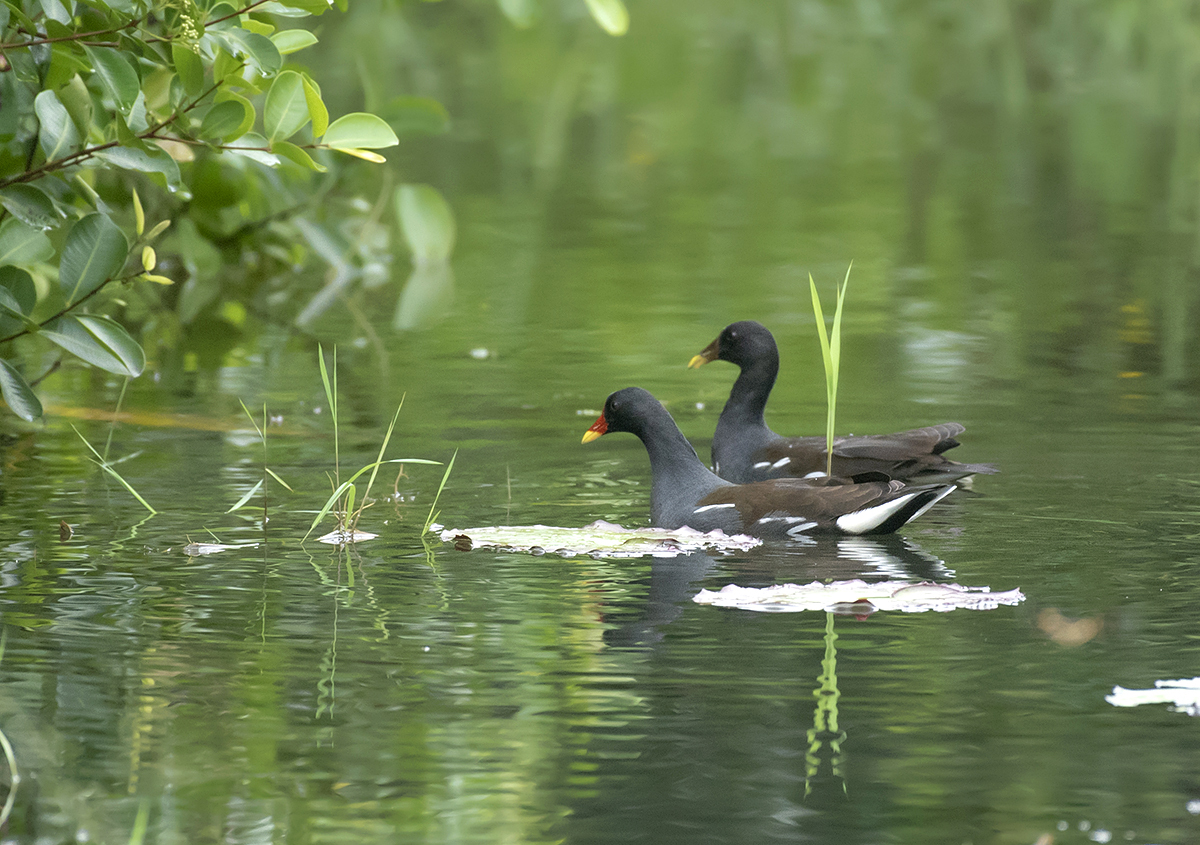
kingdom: Animalia
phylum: Chordata
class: Aves
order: Gruiformes
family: Rallidae
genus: Gallinula
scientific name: Gallinula chloropus
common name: Common moorhen
